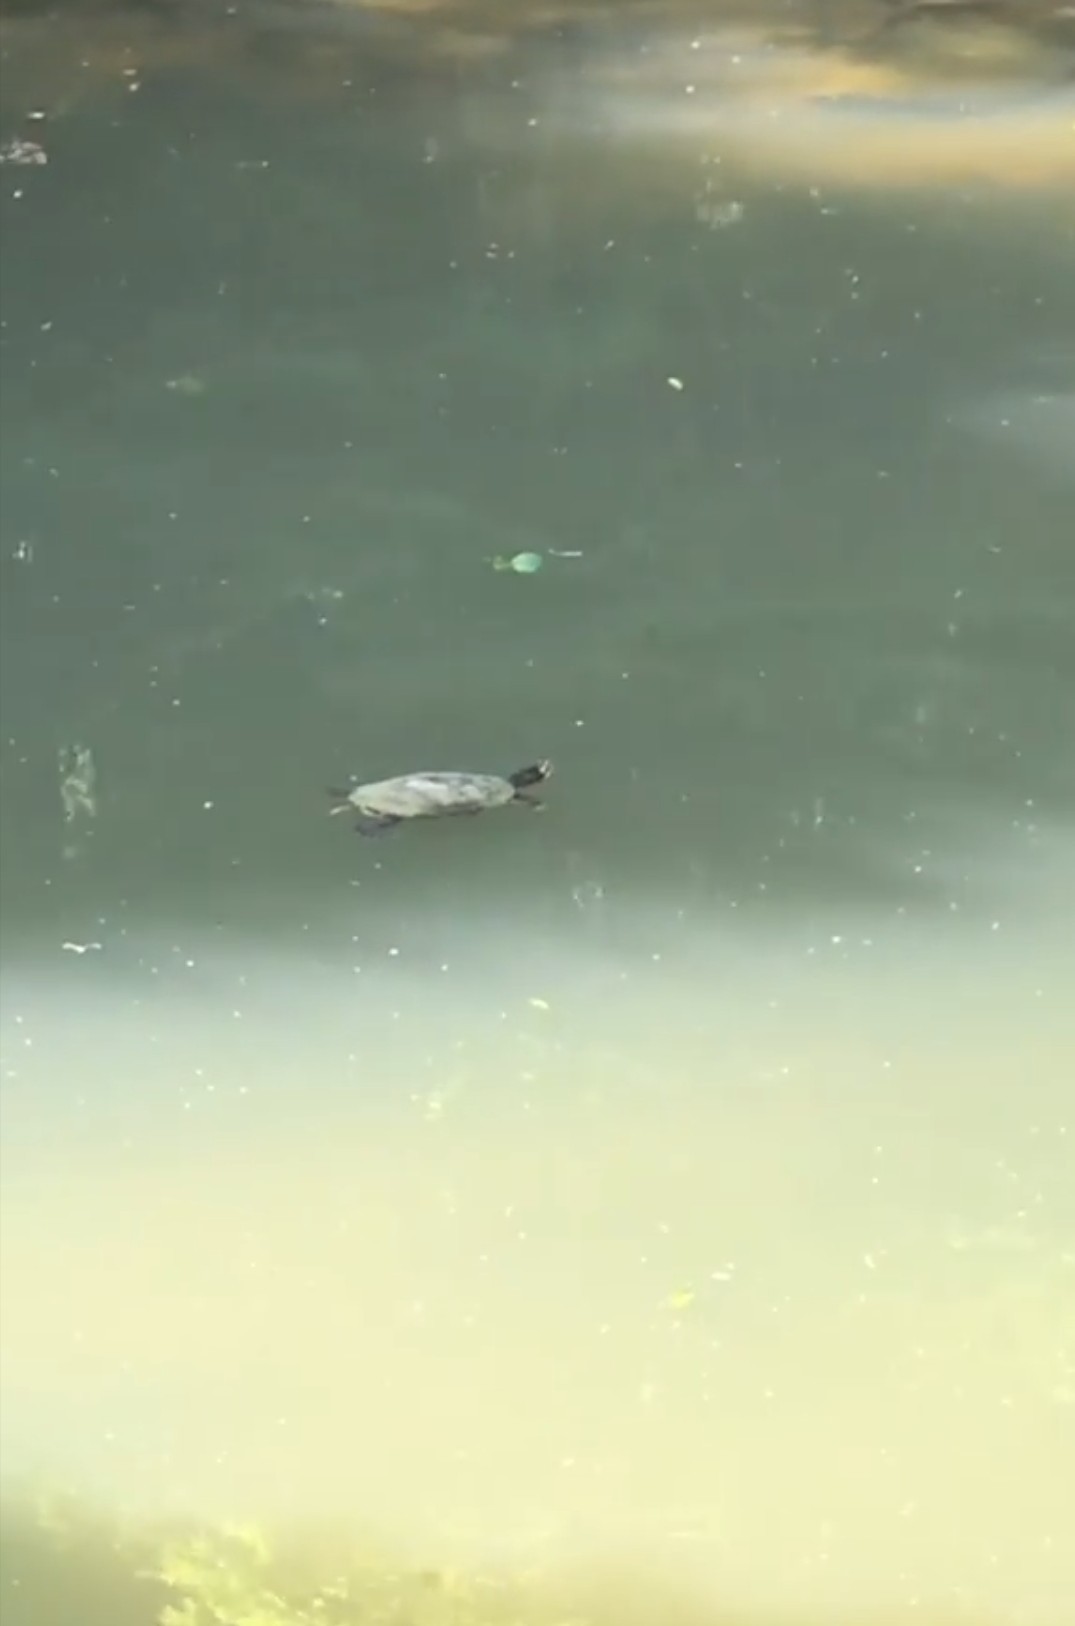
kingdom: Animalia
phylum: Chordata
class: Testudines
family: Emydidae
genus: Trachemys
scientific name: Trachemys scripta
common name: Slider
